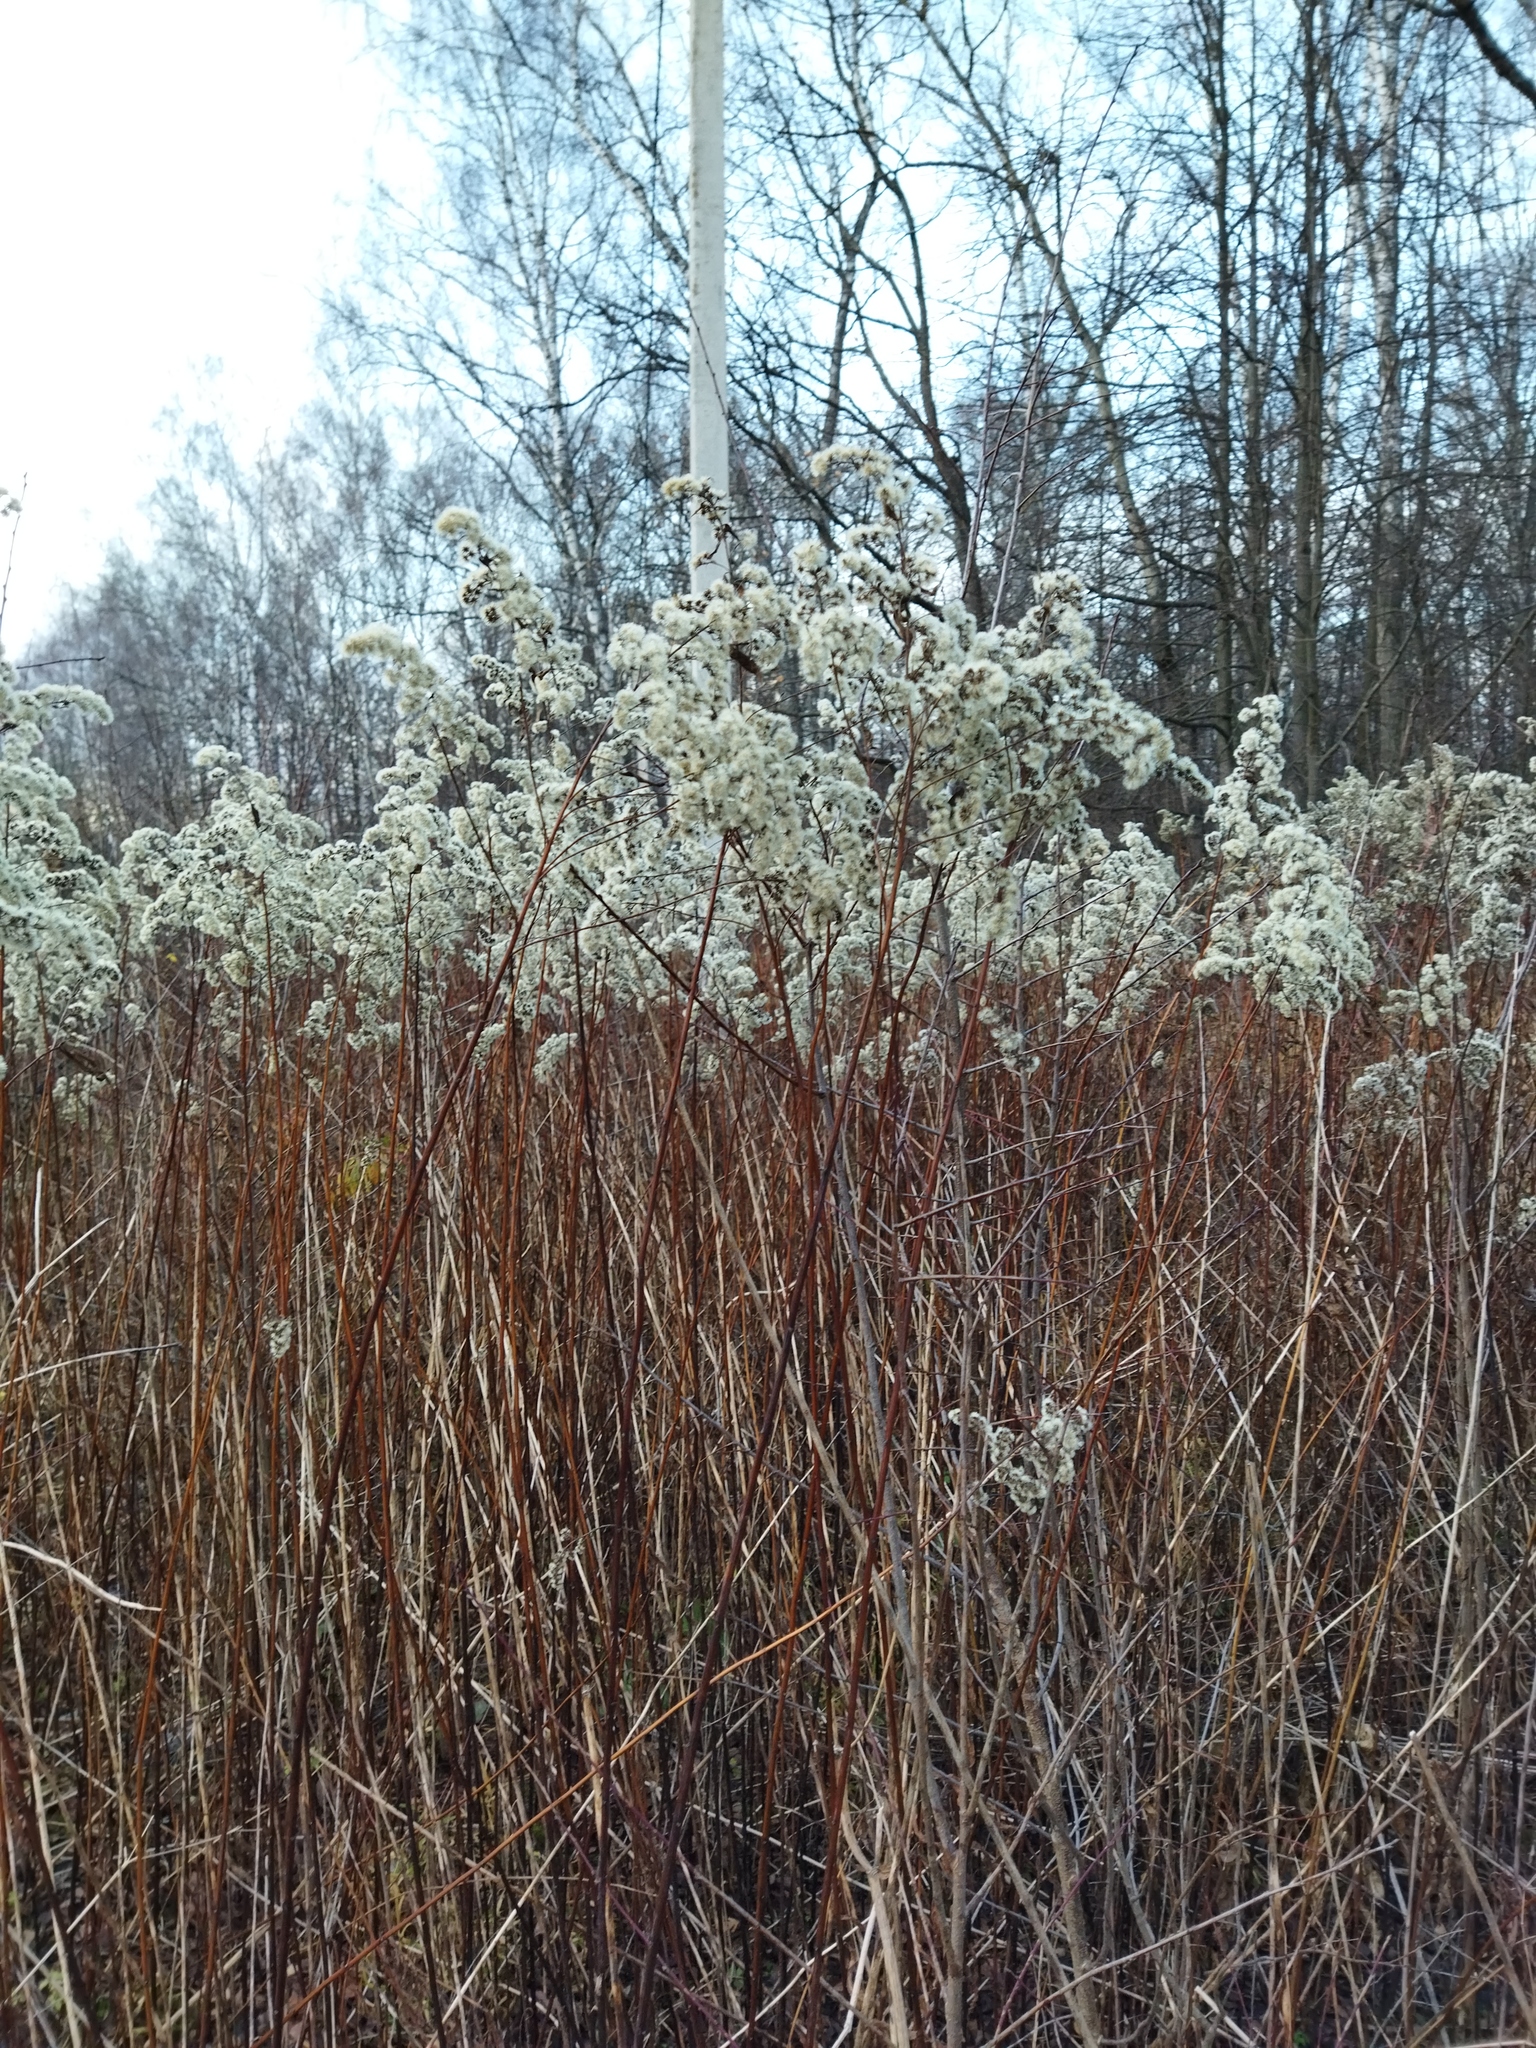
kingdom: Plantae
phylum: Tracheophyta
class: Magnoliopsida
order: Asterales
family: Asteraceae
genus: Solidago
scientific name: Solidago gigantea
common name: Giant goldenrod
